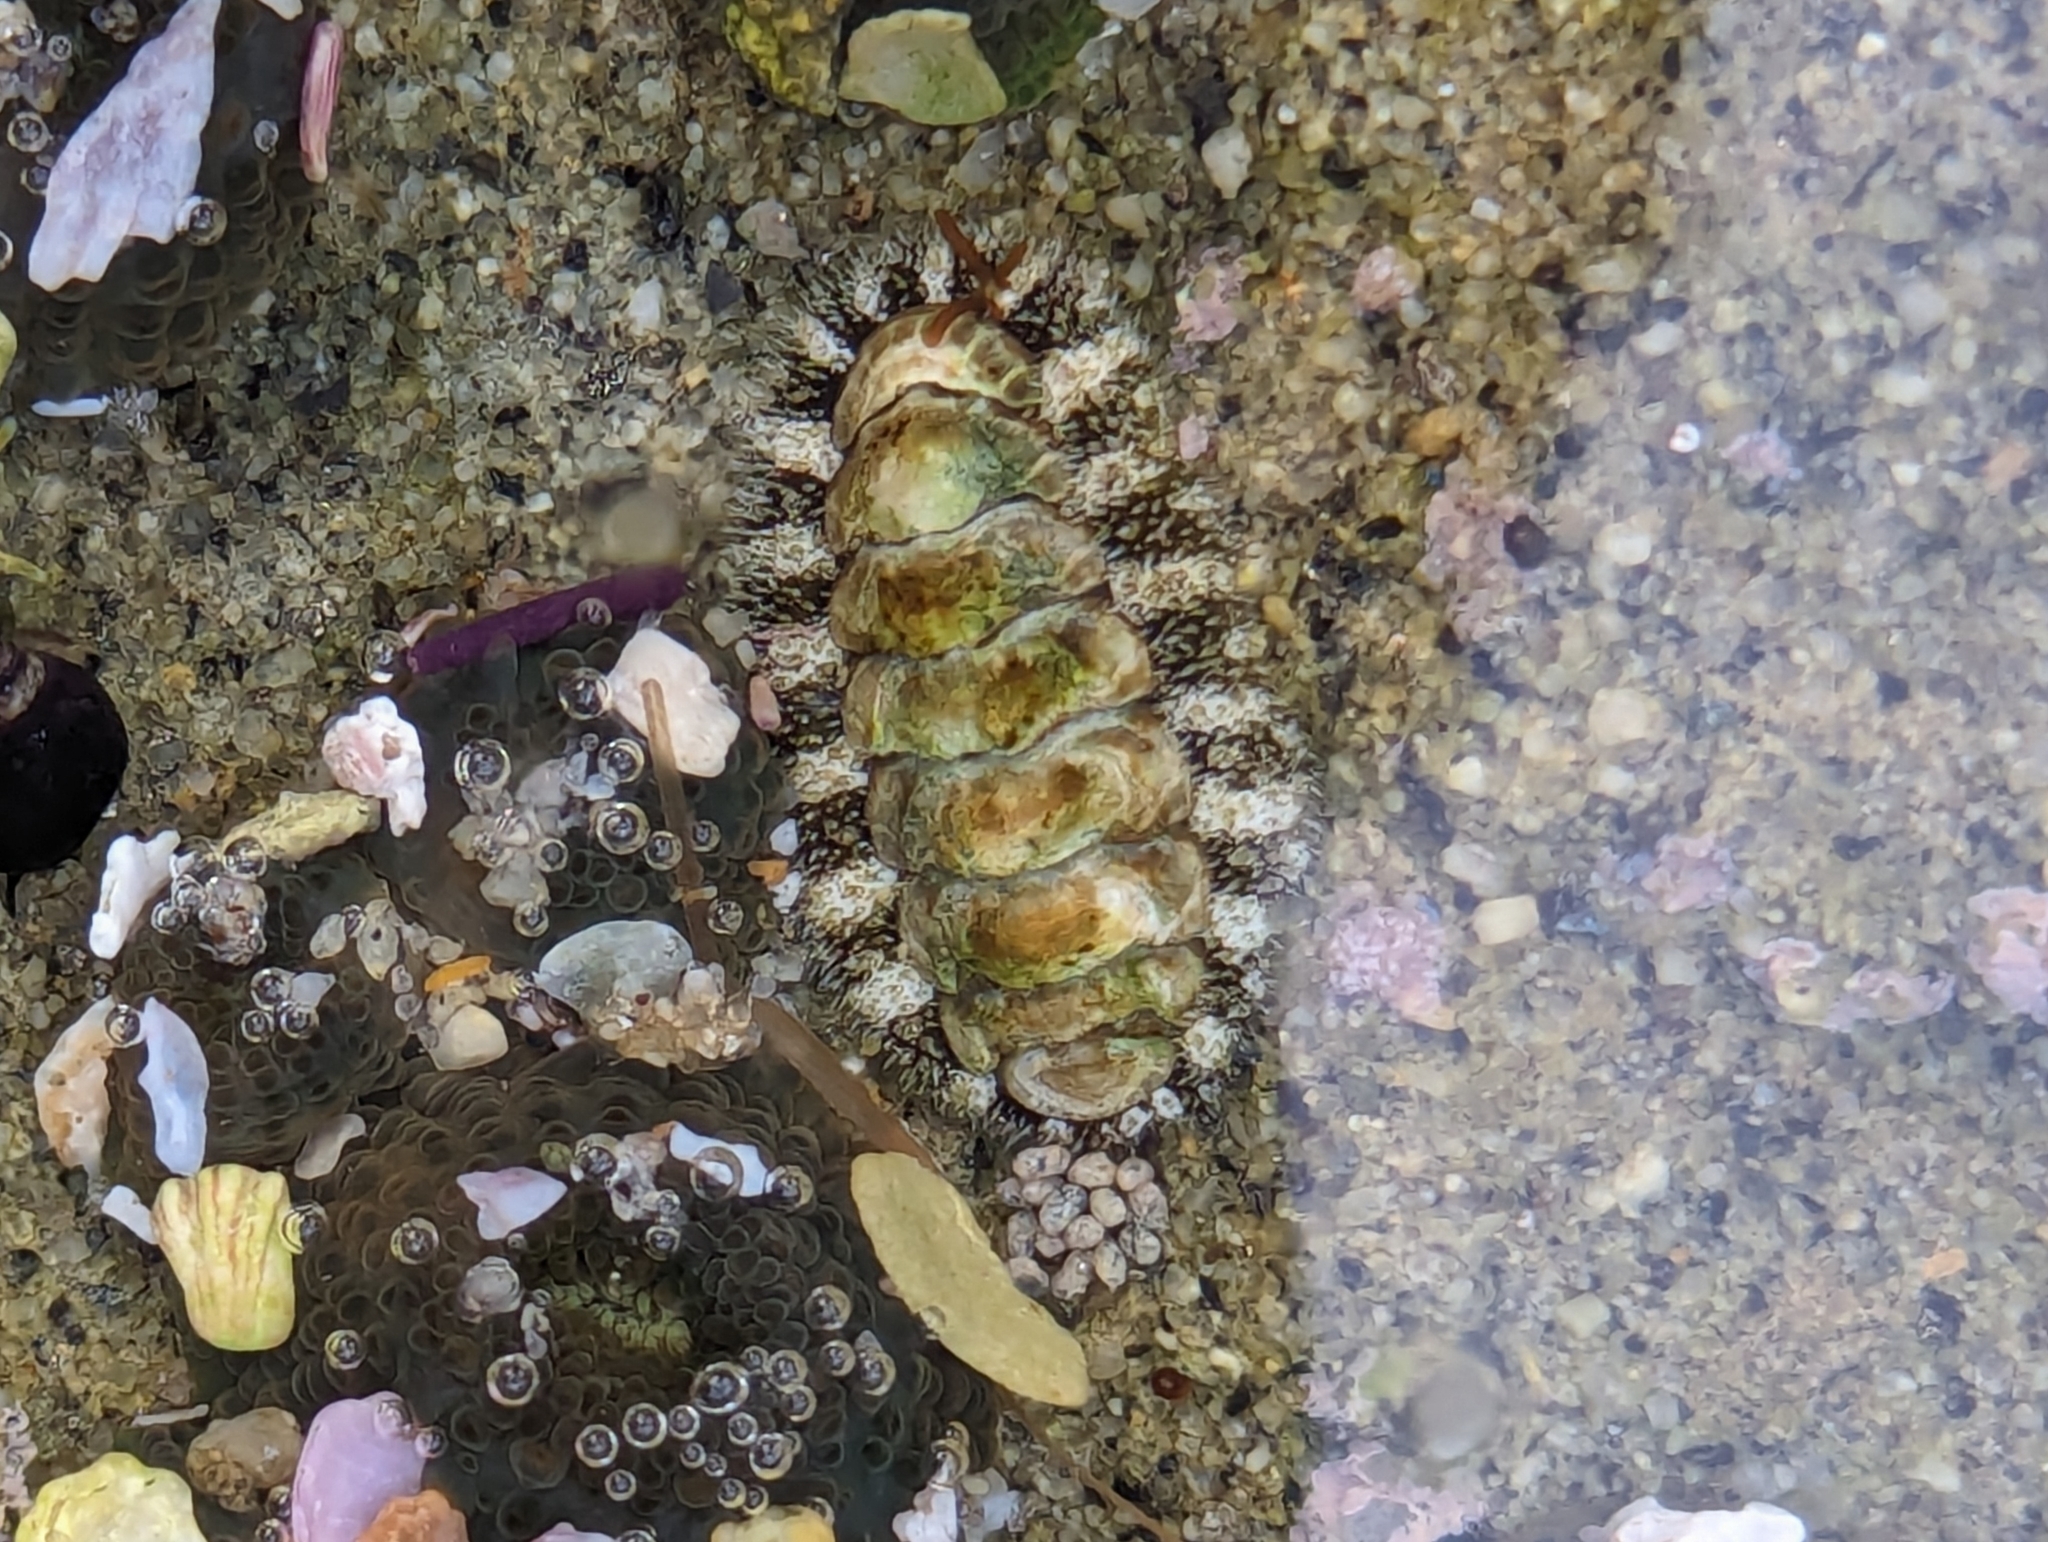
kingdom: Animalia
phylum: Mollusca
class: Polyplacophora
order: Chitonida
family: Tonicellidae
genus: Nuttallina
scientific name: Nuttallina californica
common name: California nuttall chiton
